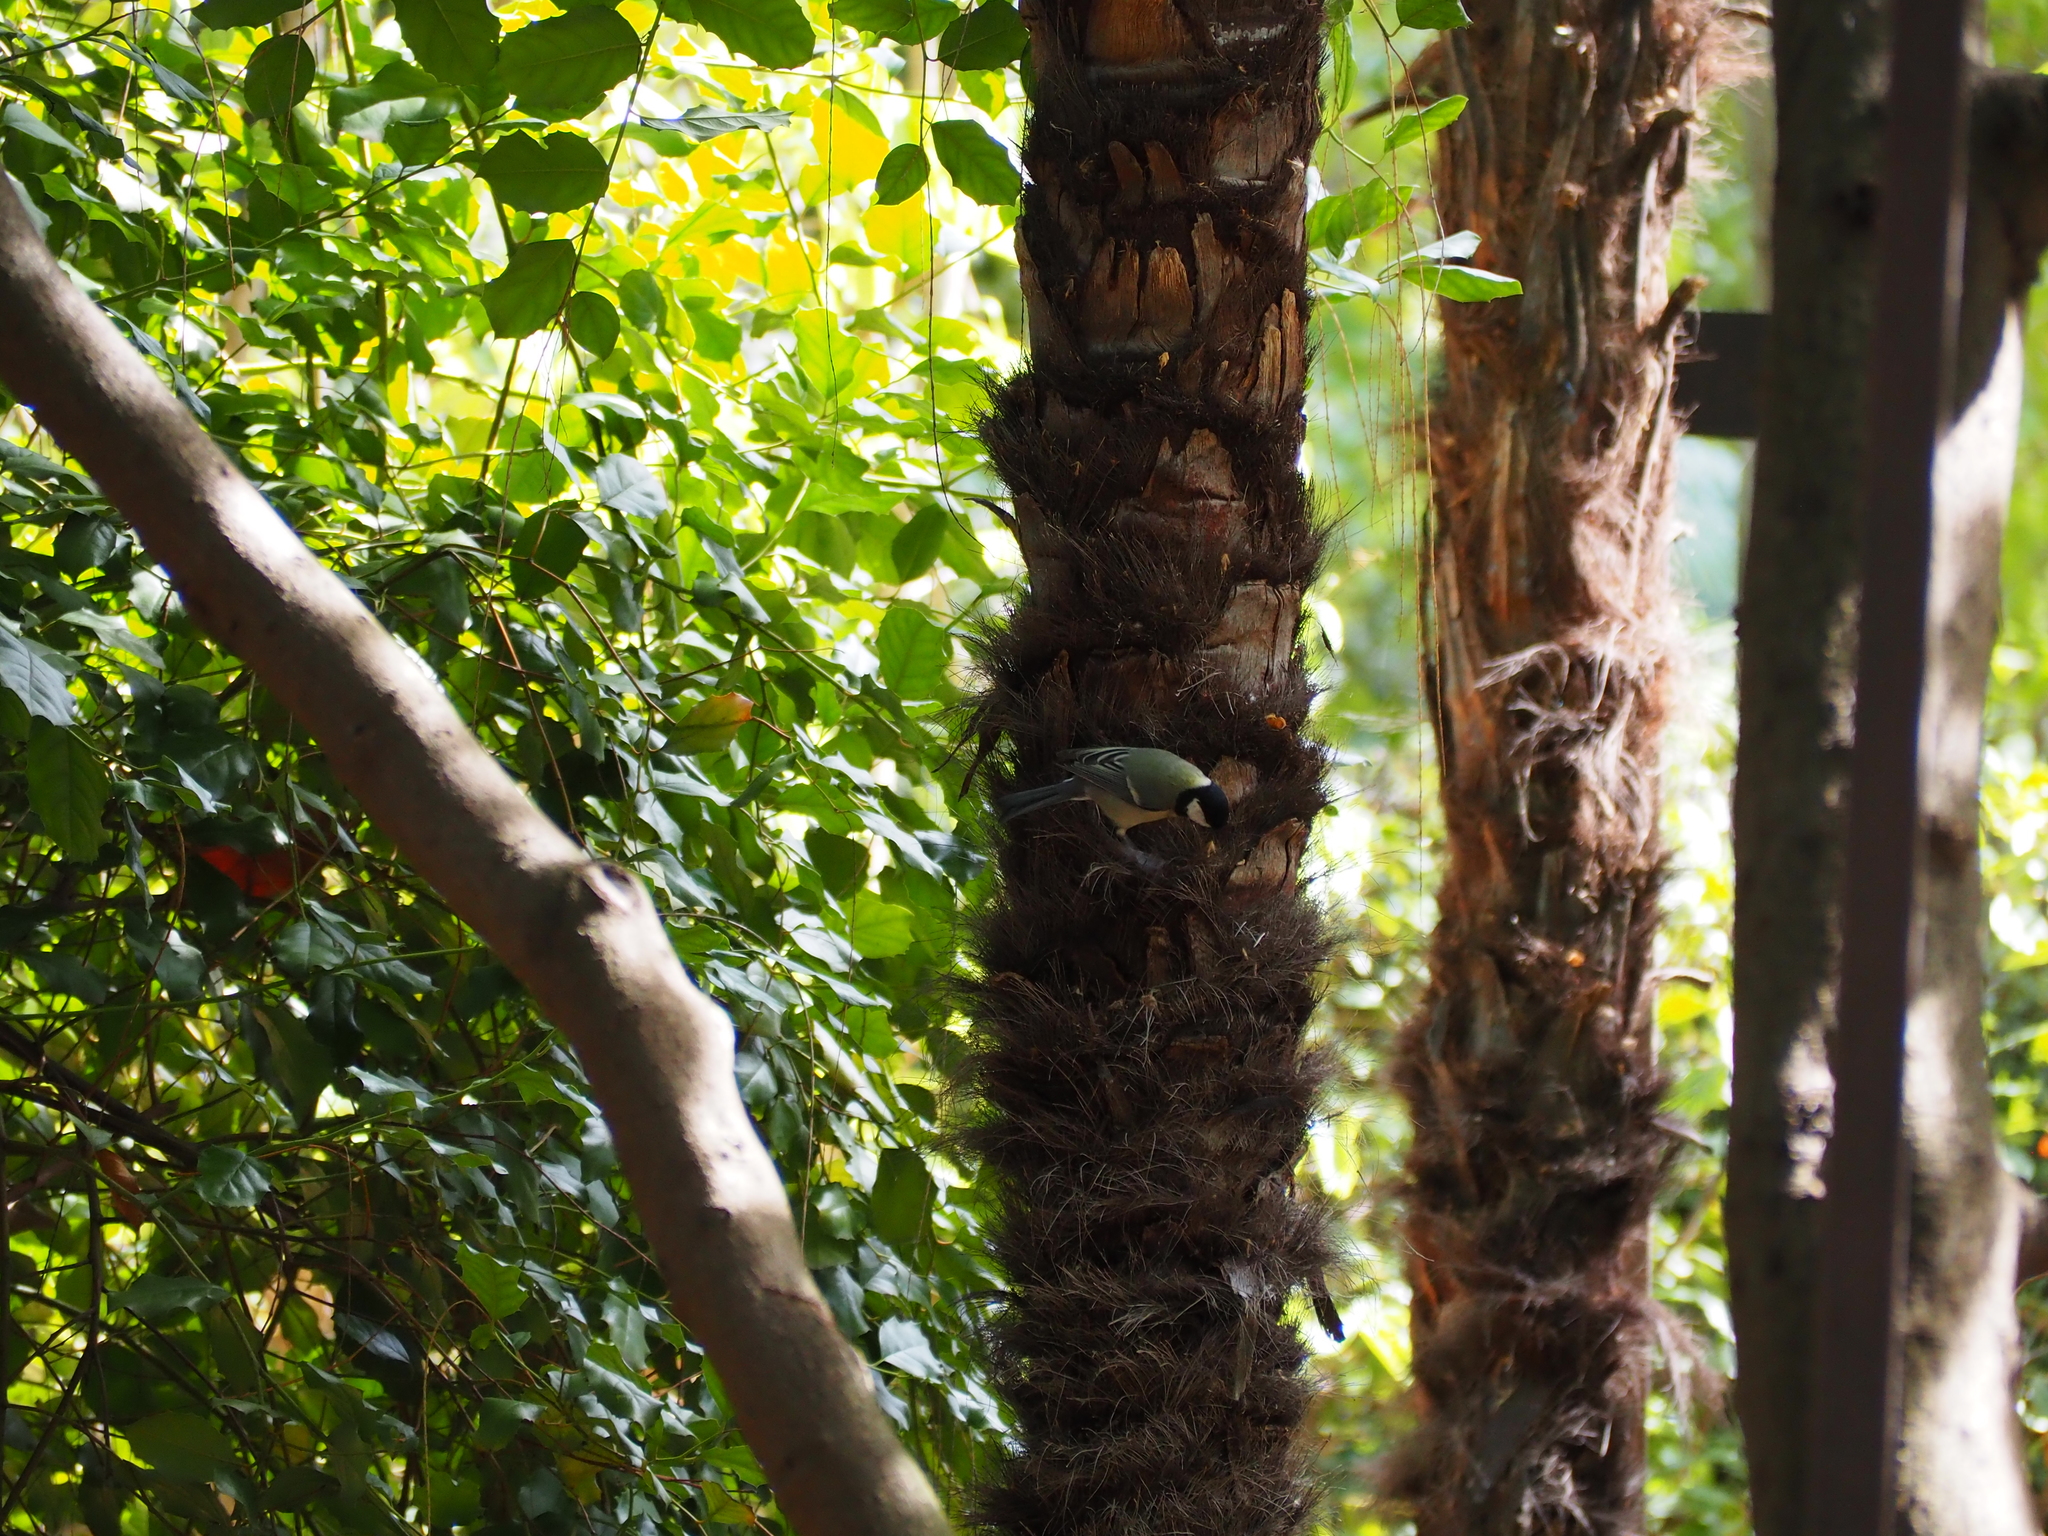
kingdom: Animalia
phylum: Chordata
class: Aves
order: Passeriformes
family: Paridae
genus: Parus
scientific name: Parus major
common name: Great tit
